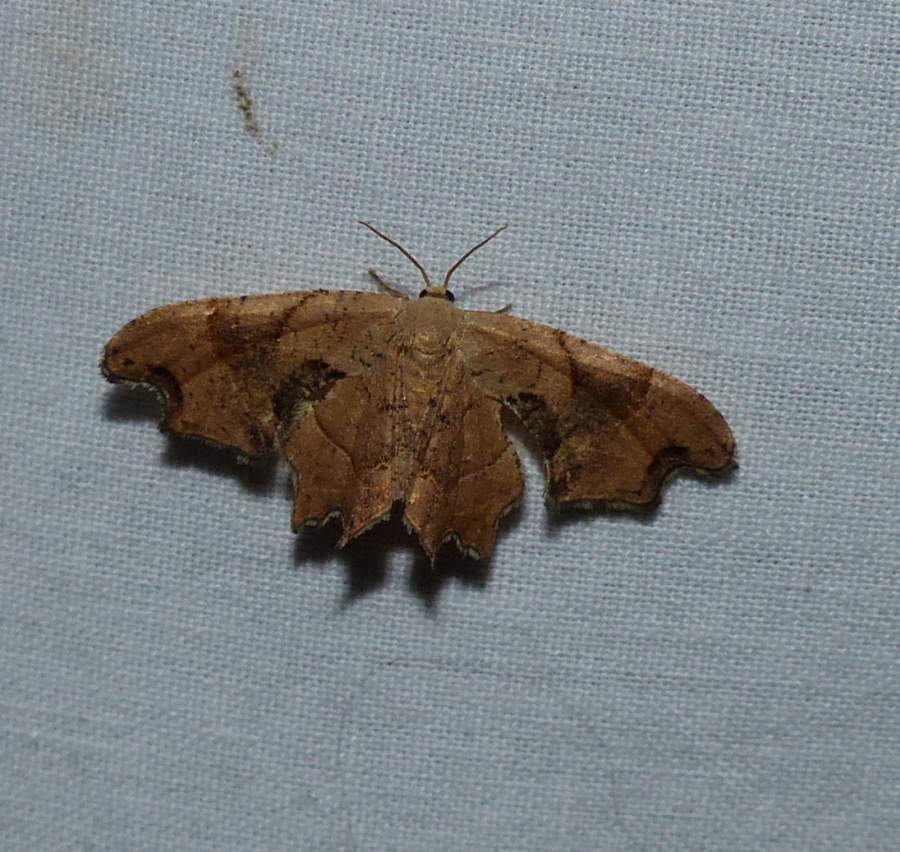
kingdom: Animalia
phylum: Arthropoda
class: Insecta
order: Lepidoptera
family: Uraniidae
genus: Epiplema
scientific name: Epiplema Calledapteryx dryopterata
